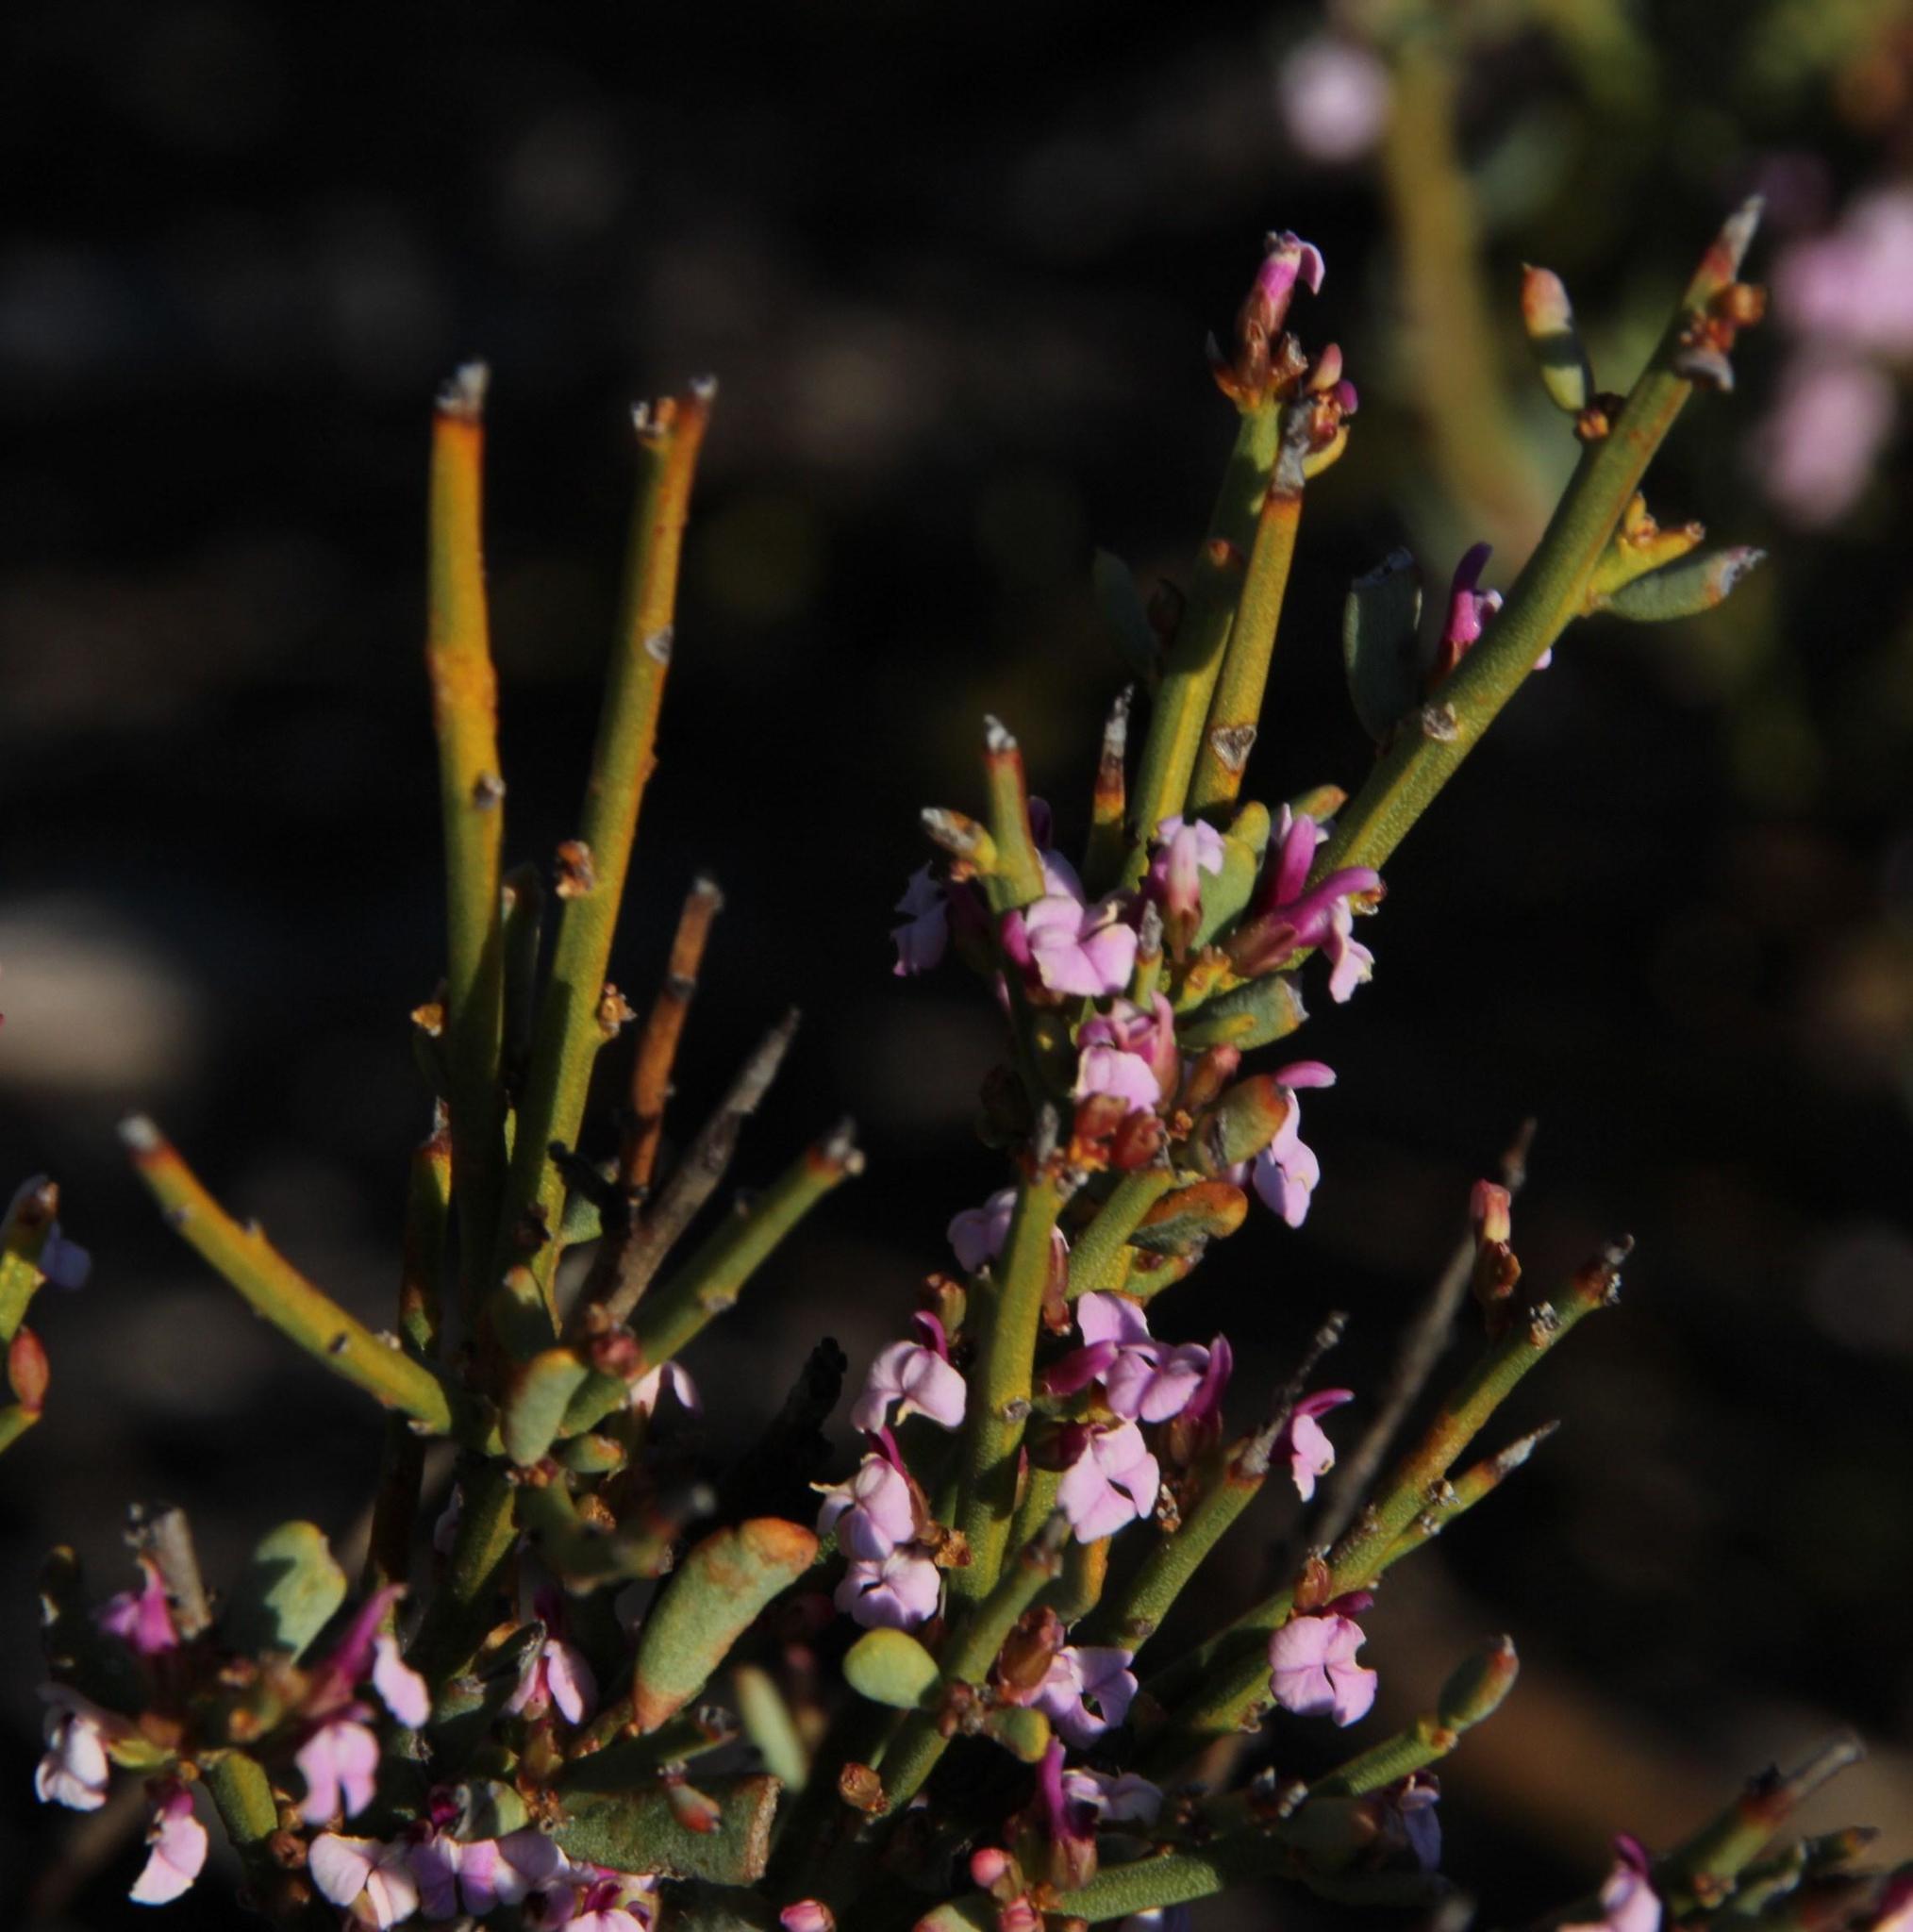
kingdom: Plantae
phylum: Tracheophyta
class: Magnoliopsida
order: Fabales
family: Polygalaceae
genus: Muraltia
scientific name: Muraltia spinosa
